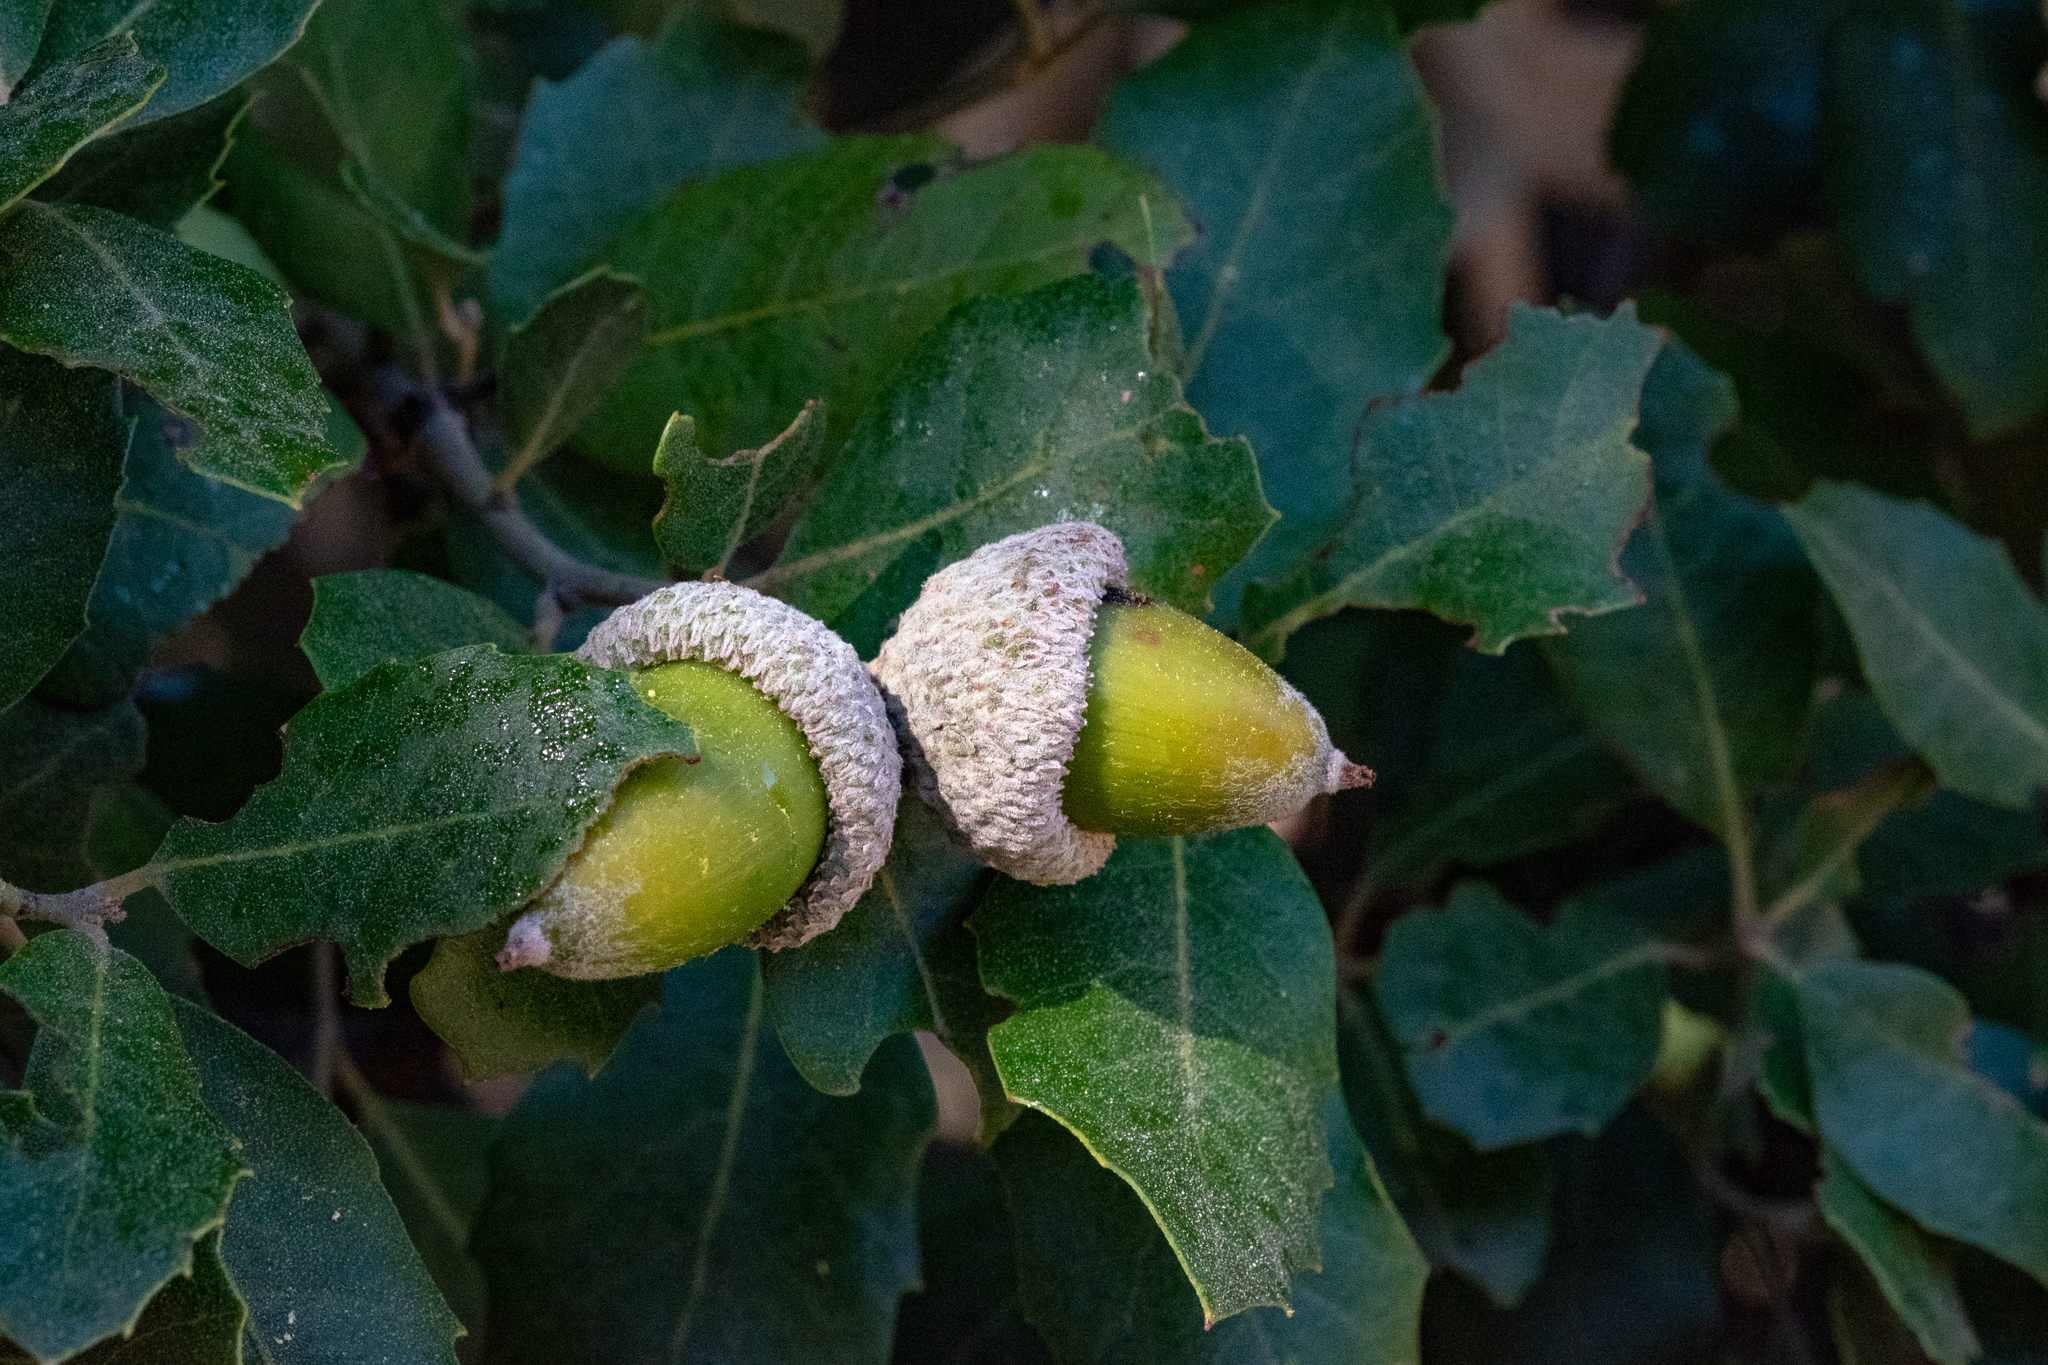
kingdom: Plantae
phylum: Tracheophyta
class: Magnoliopsida
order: Fagales
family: Fagaceae
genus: Quercus
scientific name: Quercus rotundifolia
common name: Holm oak
